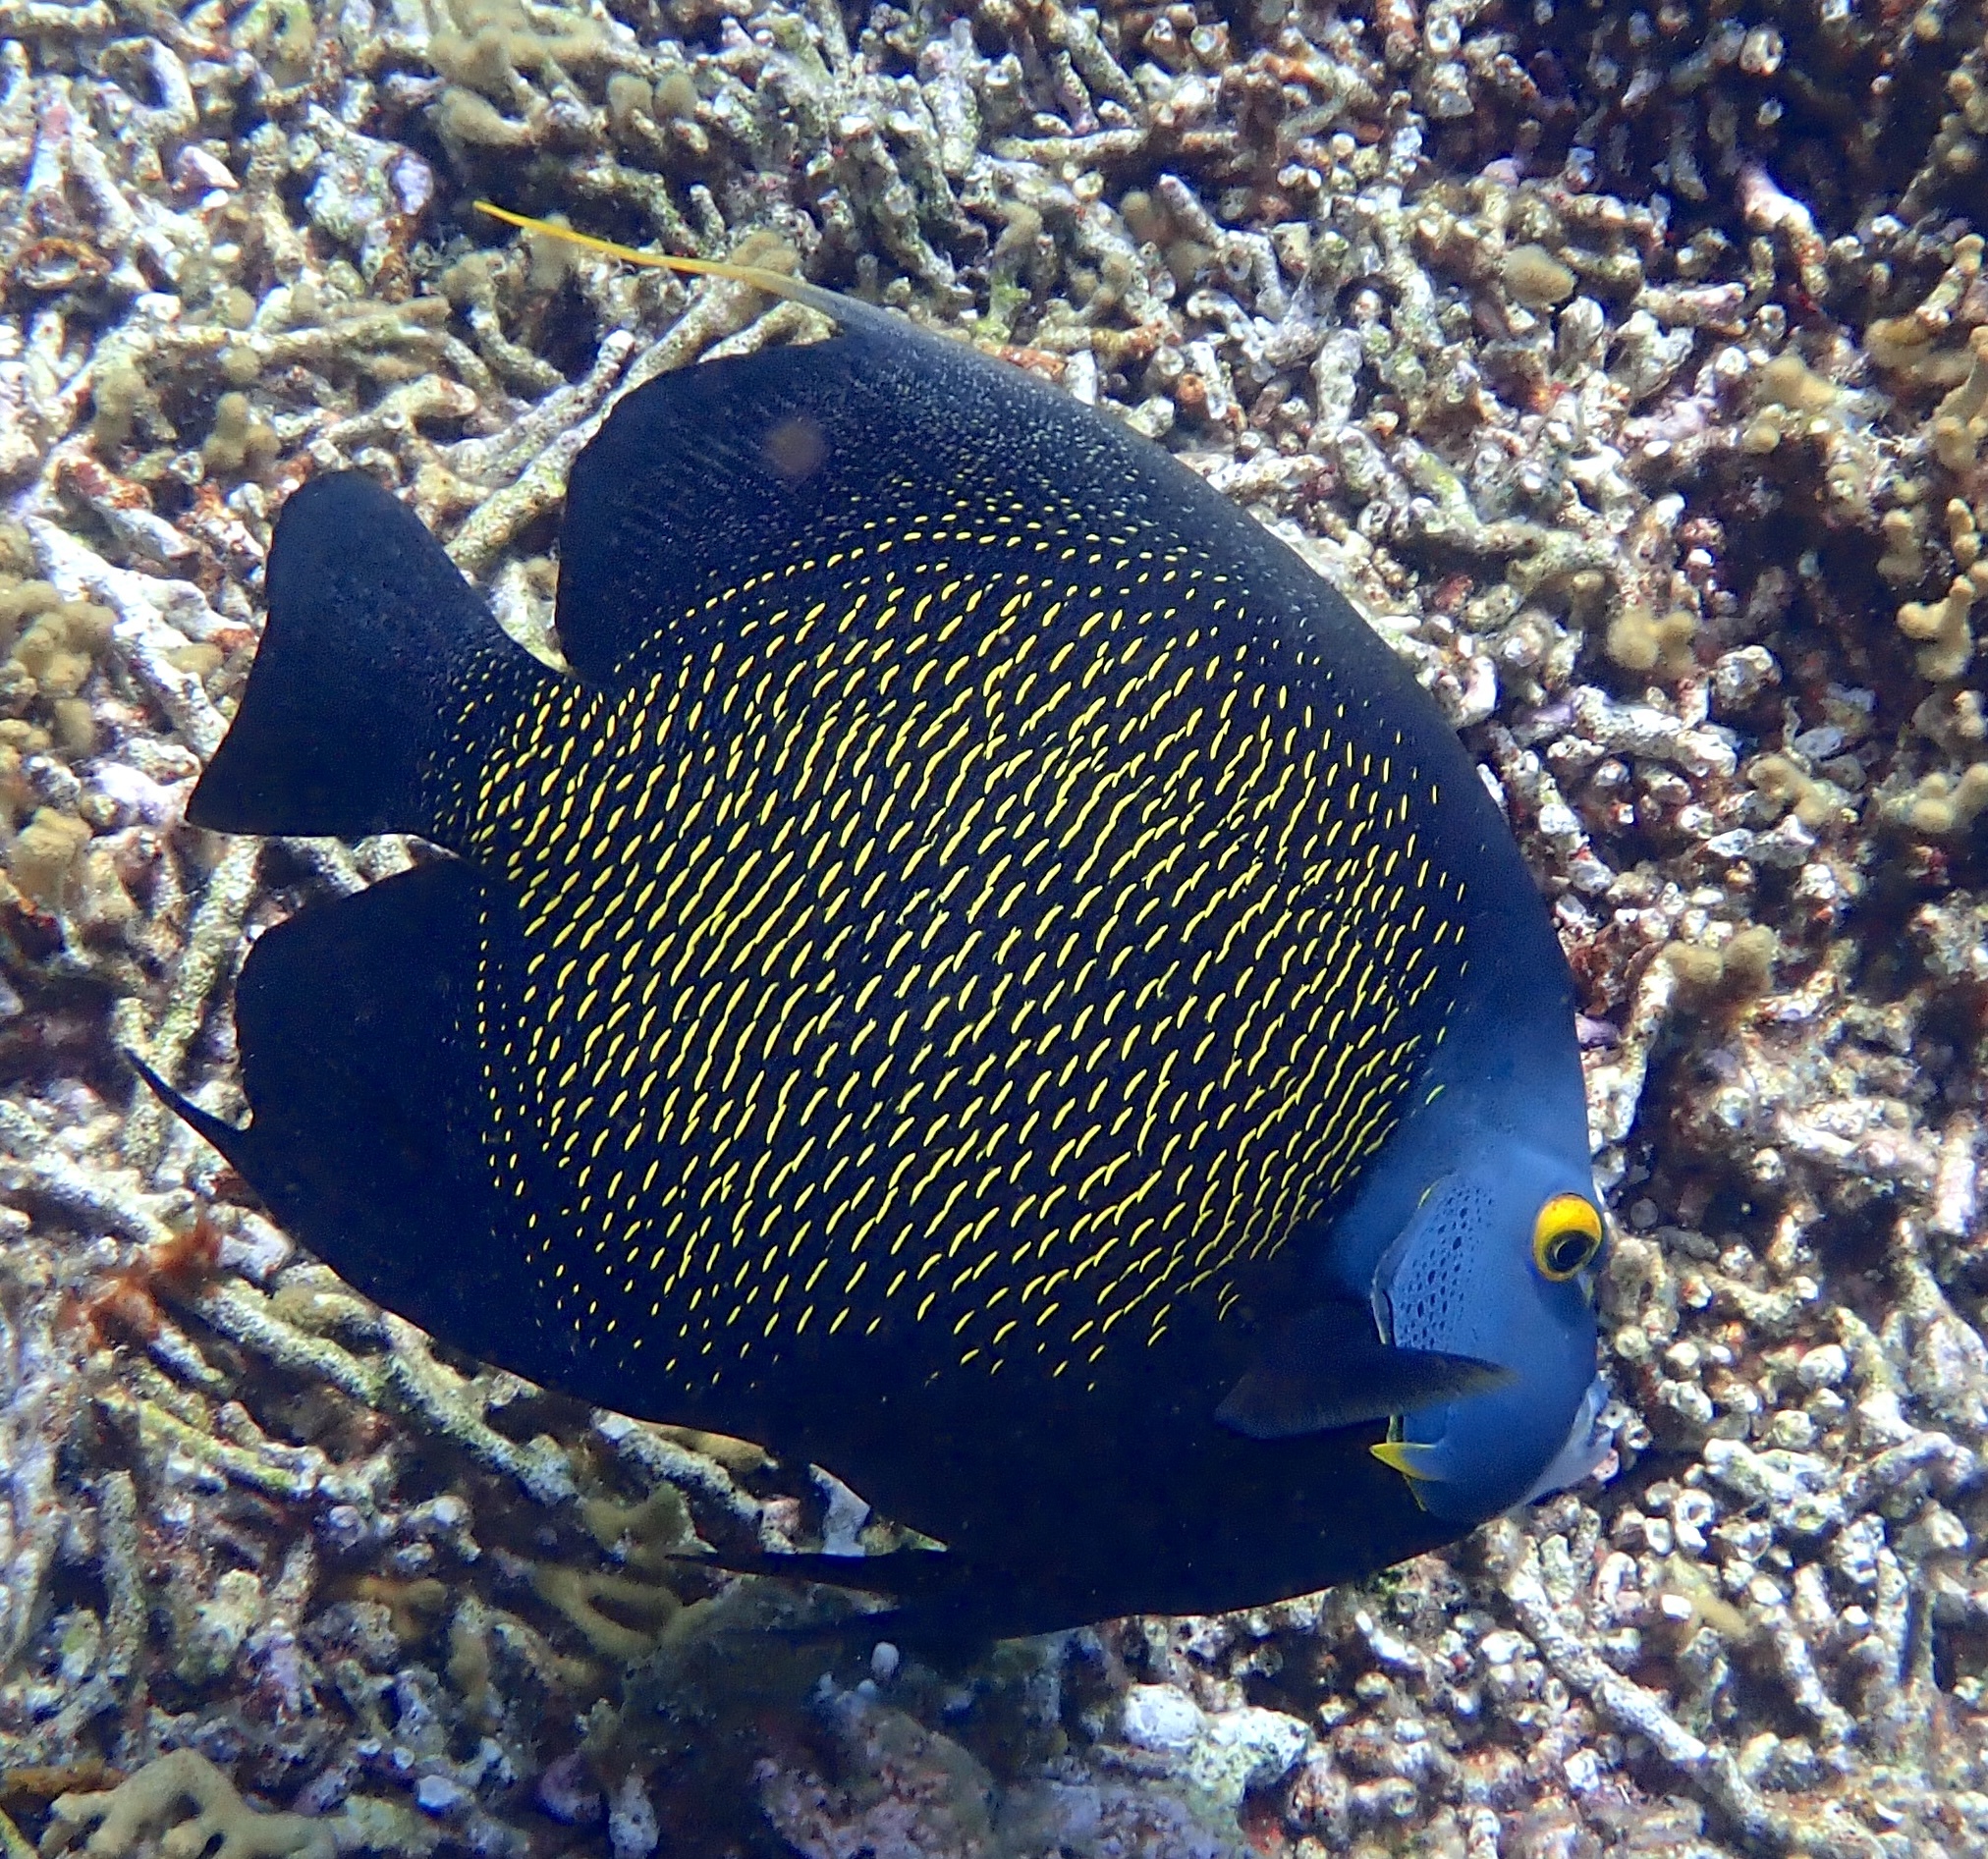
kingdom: Animalia
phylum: Chordata
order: Perciformes
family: Pomacanthidae
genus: Pomacanthus
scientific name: Pomacanthus paru
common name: French angelfish
